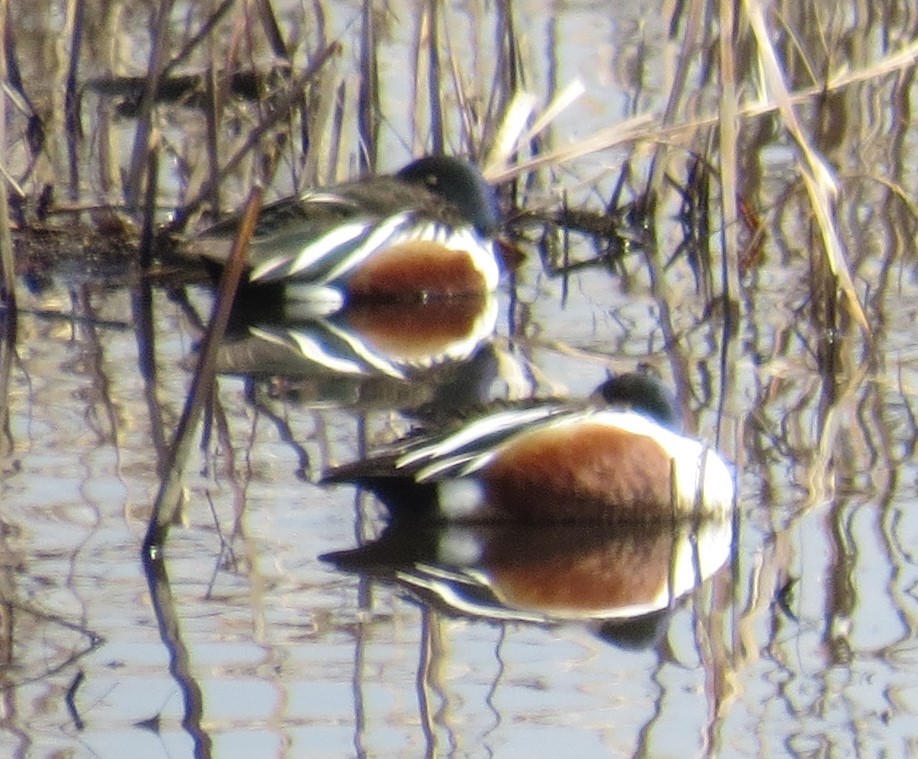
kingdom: Animalia
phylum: Chordata
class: Aves
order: Anseriformes
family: Anatidae
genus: Spatula
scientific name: Spatula clypeata
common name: Northern shoveler
